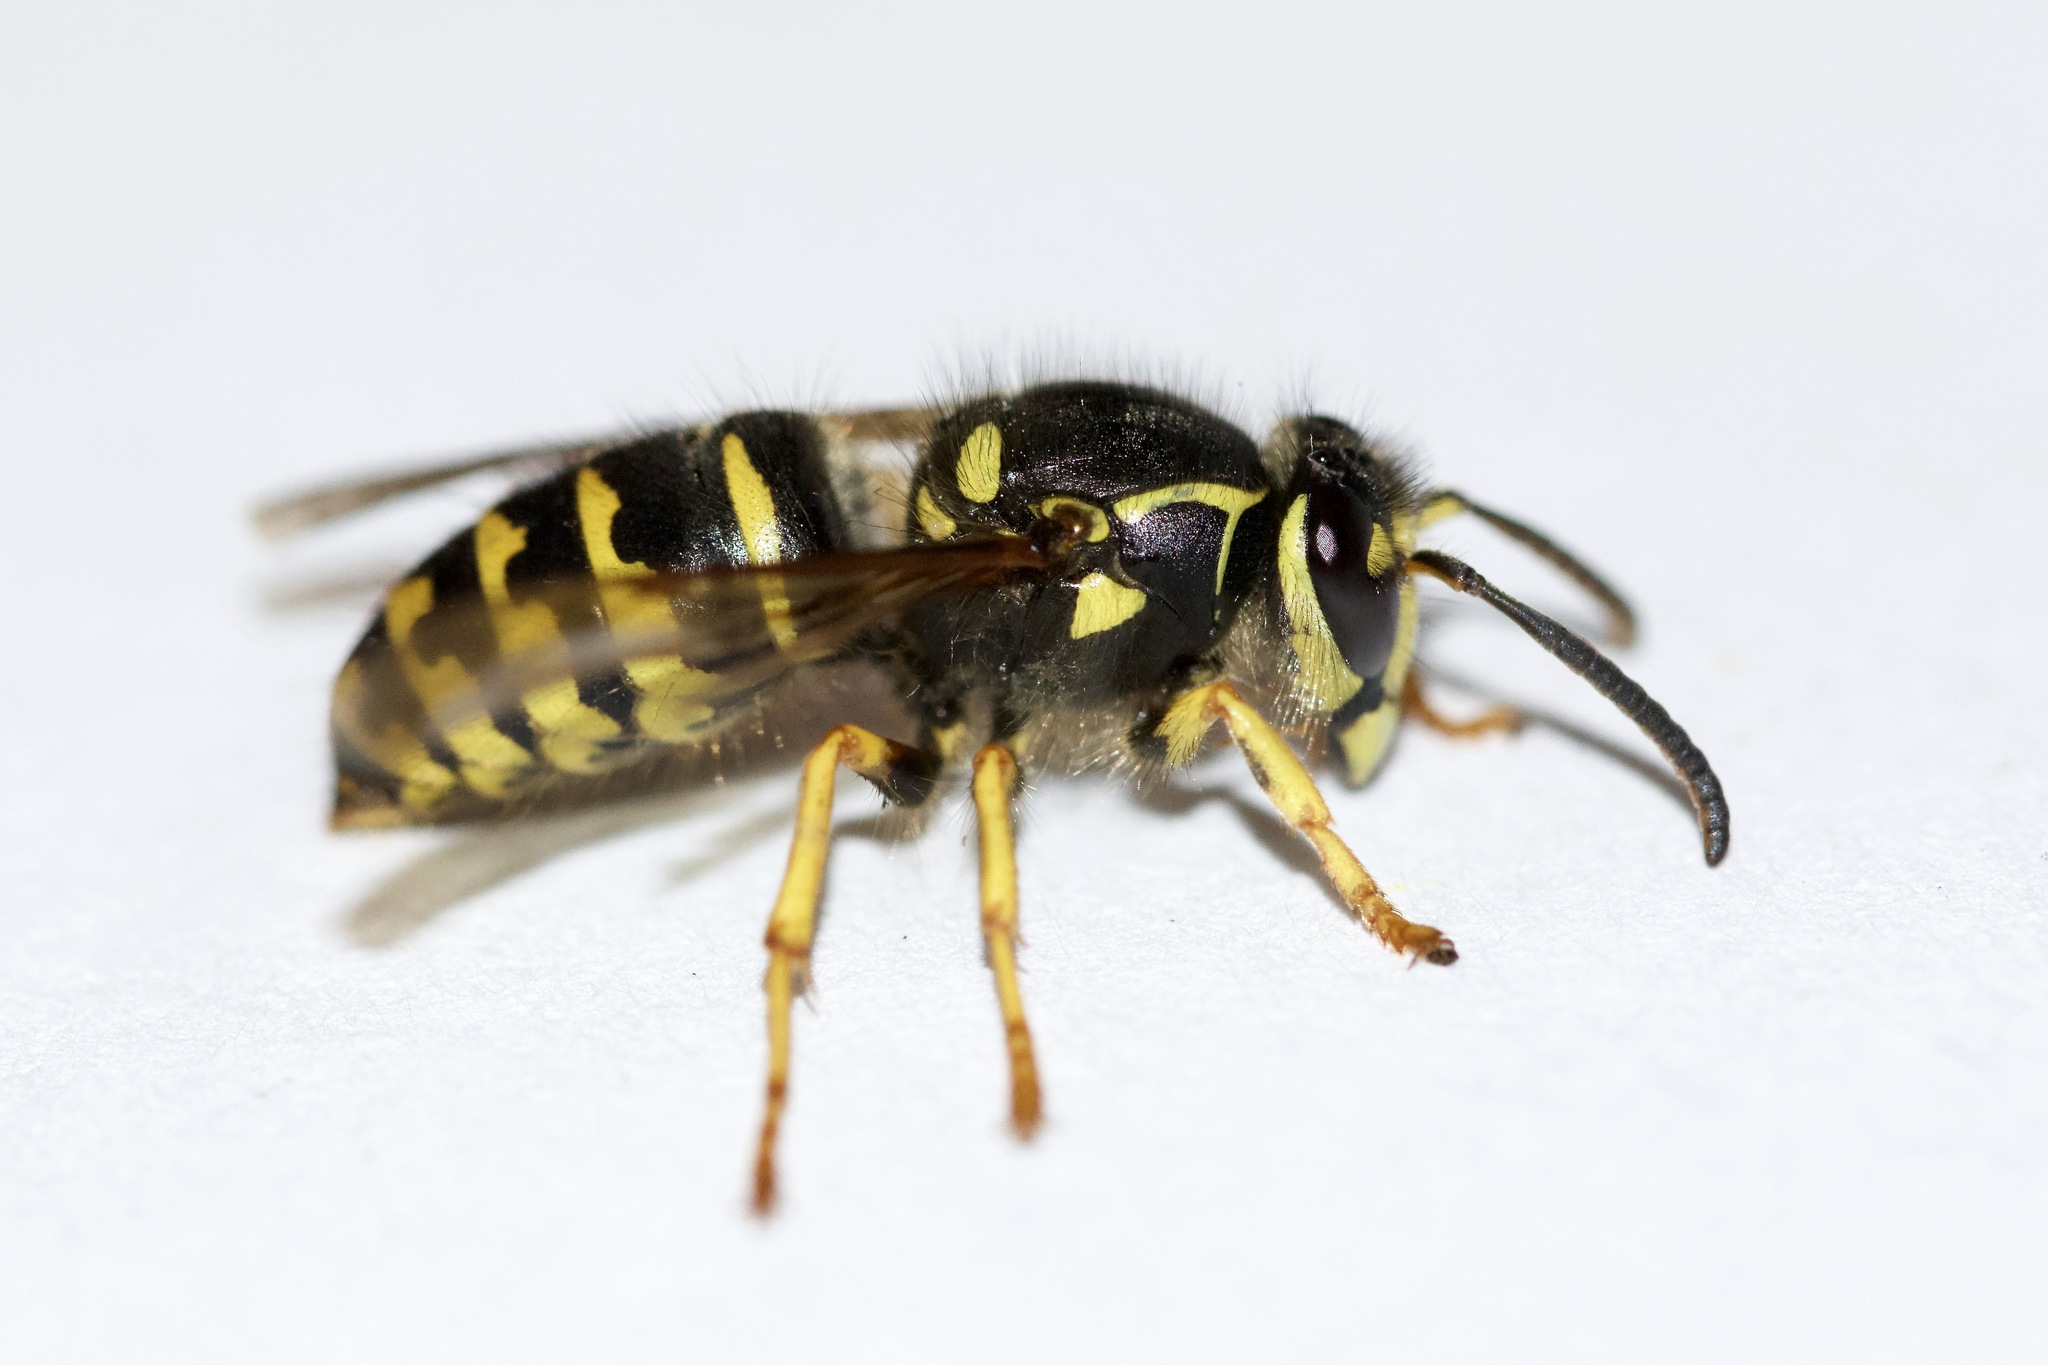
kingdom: Animalia
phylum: Arthropoda
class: Insecta
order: Hymenoptera
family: Vespidae
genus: Dolichovespula
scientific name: Dolichovespula arenaria
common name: Aerial yellowjacket
